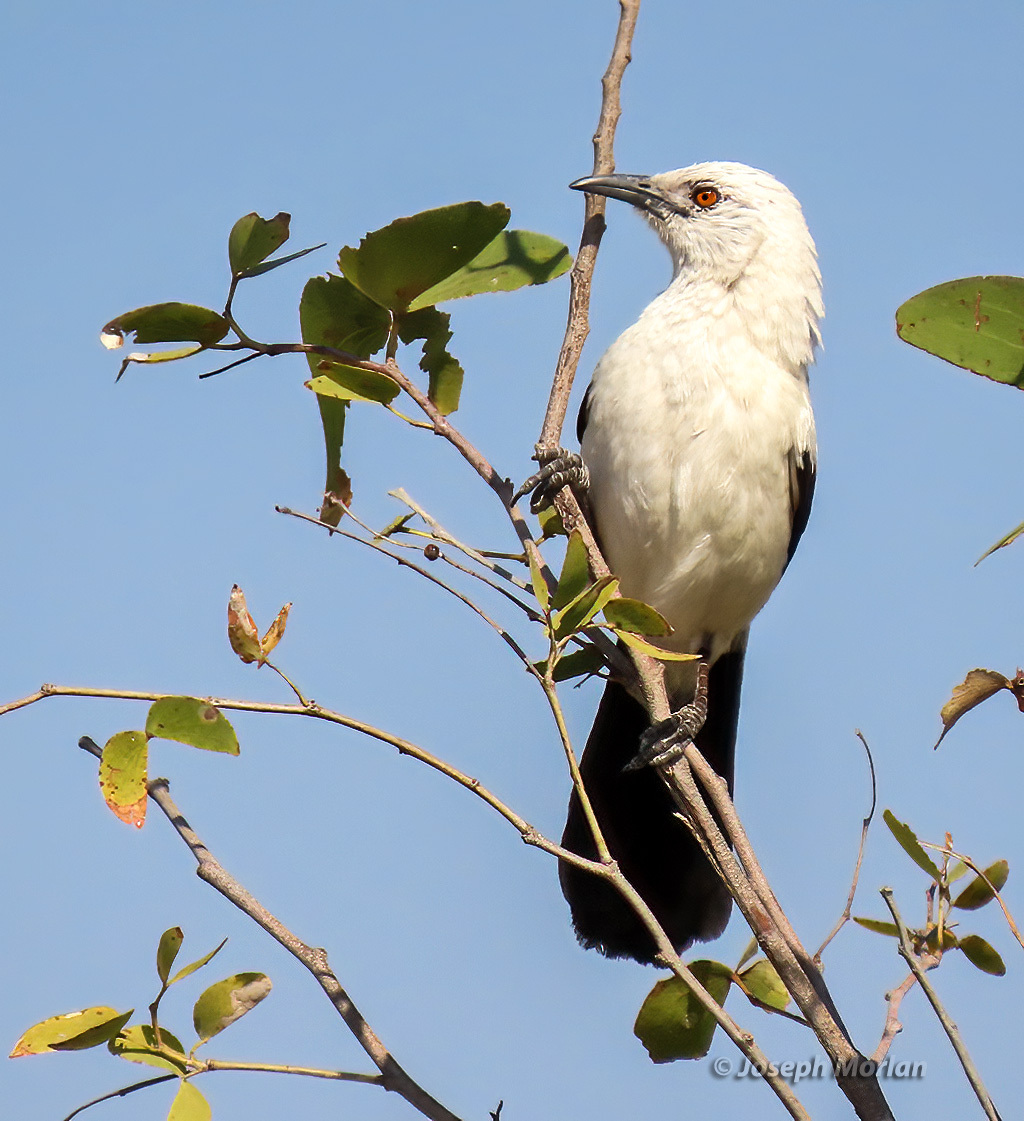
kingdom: Animalia
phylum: Chordata
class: Aves
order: Passeriformes
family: Leiothrichidae
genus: Turdoides
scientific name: Turdoides bicolor
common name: Southern pied babbler
